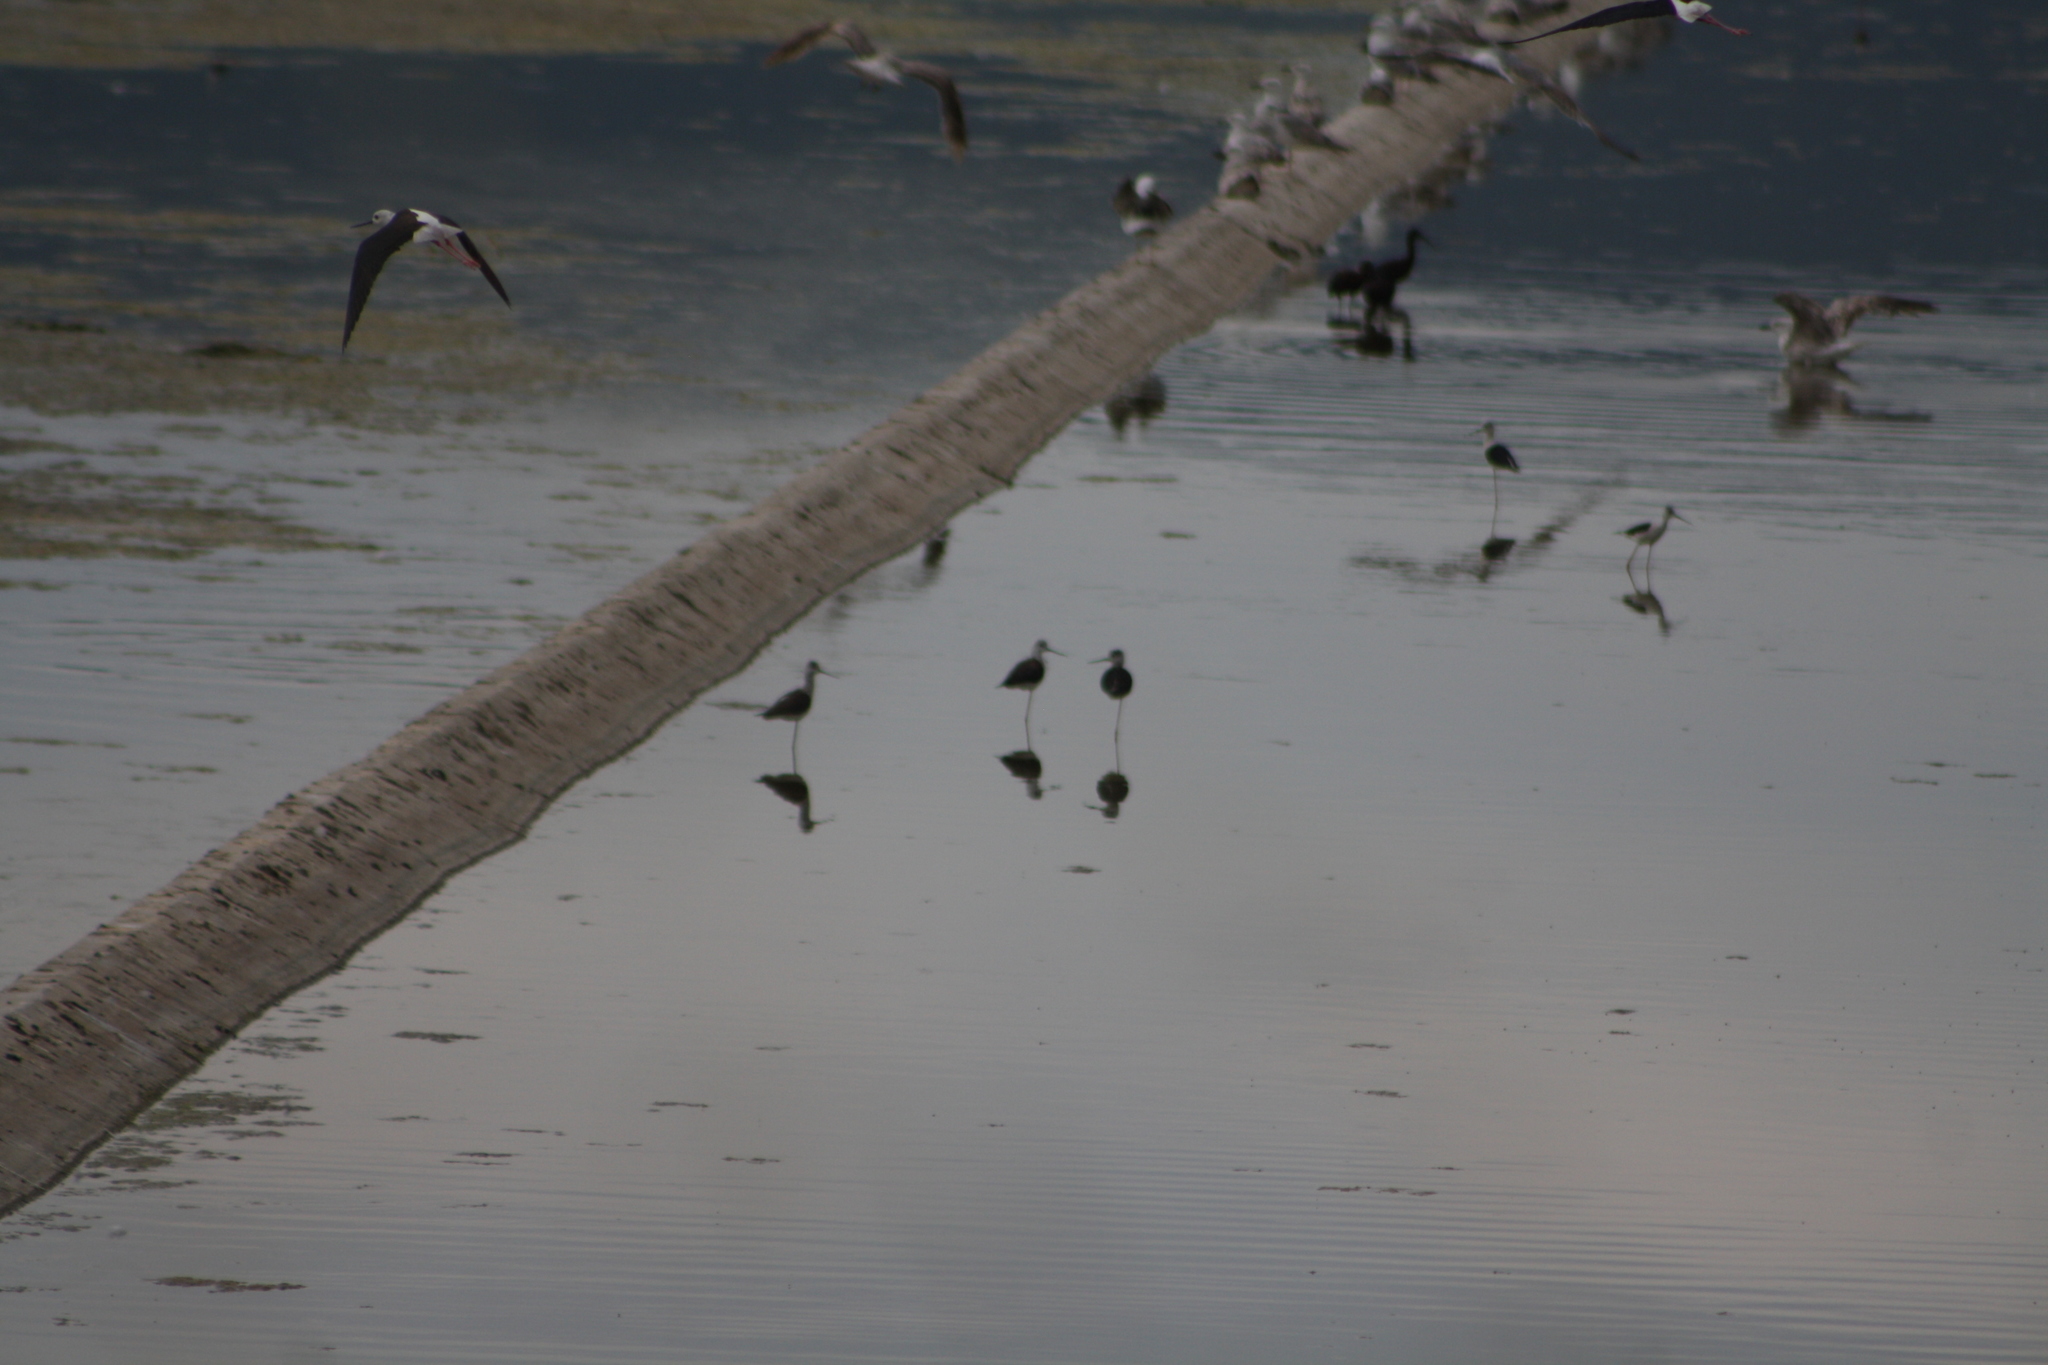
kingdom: Animalia
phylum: Chordata
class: Aves
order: Charadriiformes
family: Recurvirostridae
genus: Himantopus
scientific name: Himantopus himantopus
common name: Black-winged stilt
